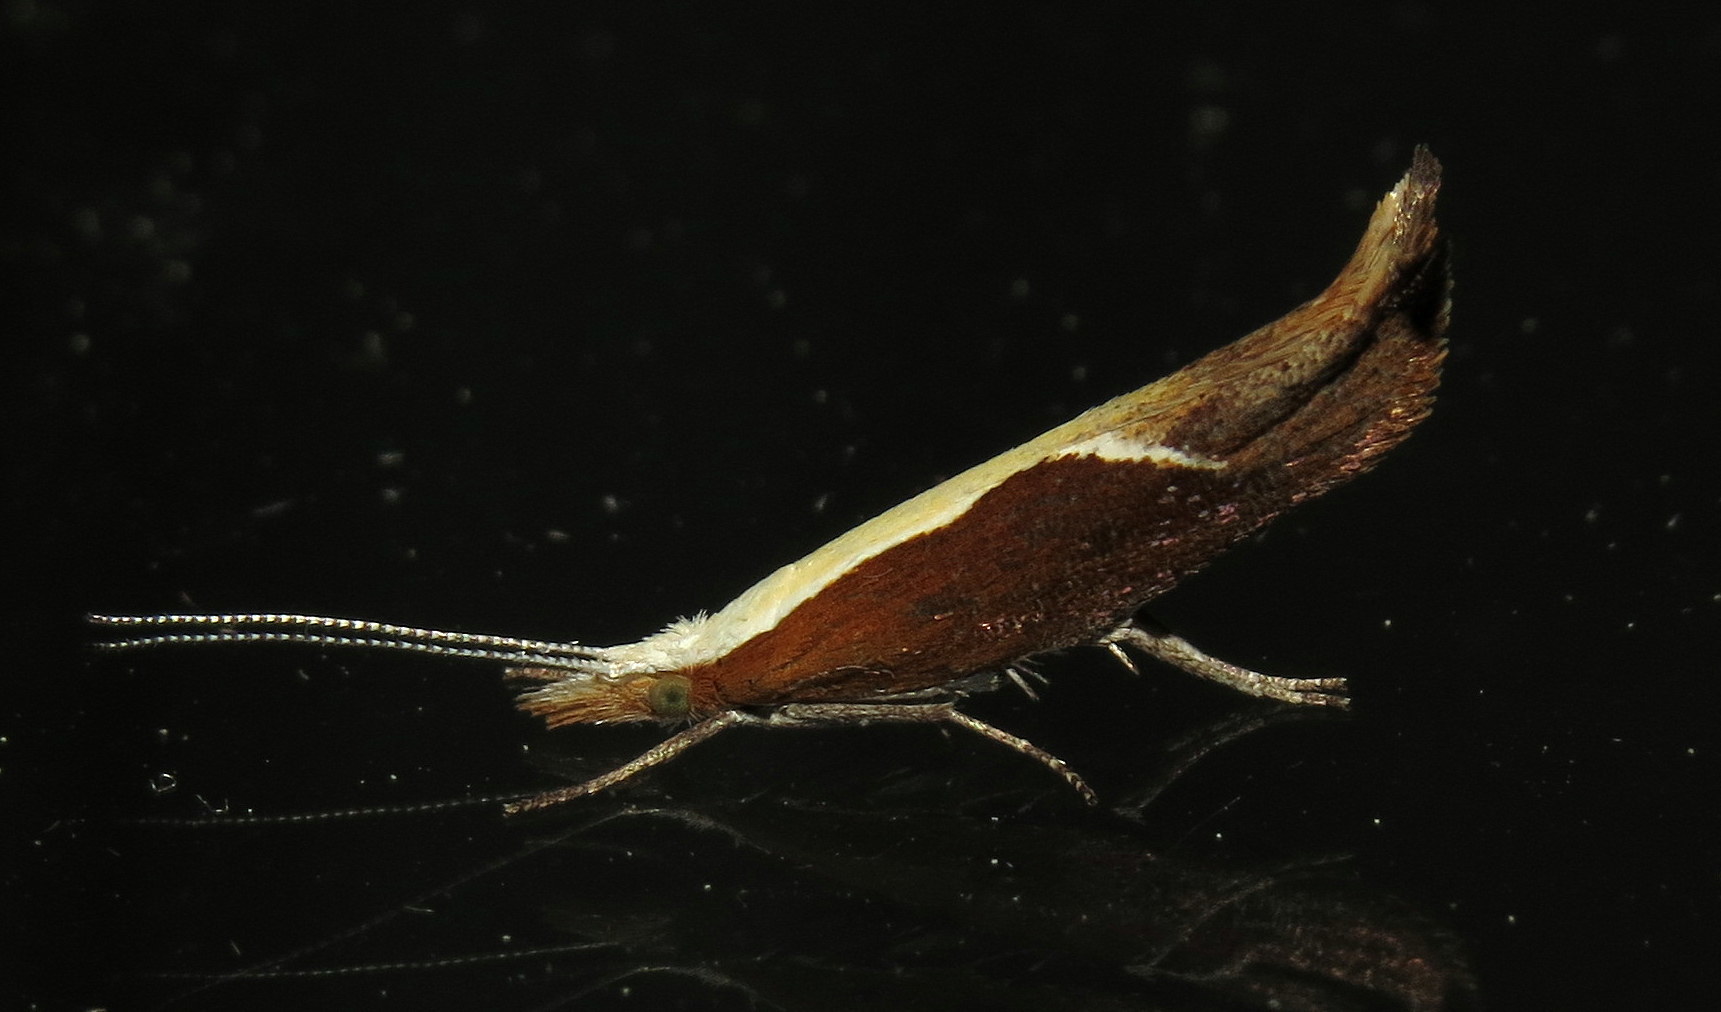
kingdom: Animalia
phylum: Arthropoda
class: Insecta
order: Lepidoptera
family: Ypsolophidae
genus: Ypsolopha
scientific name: Ypsolopha dentella
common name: Honeysuckle moth
